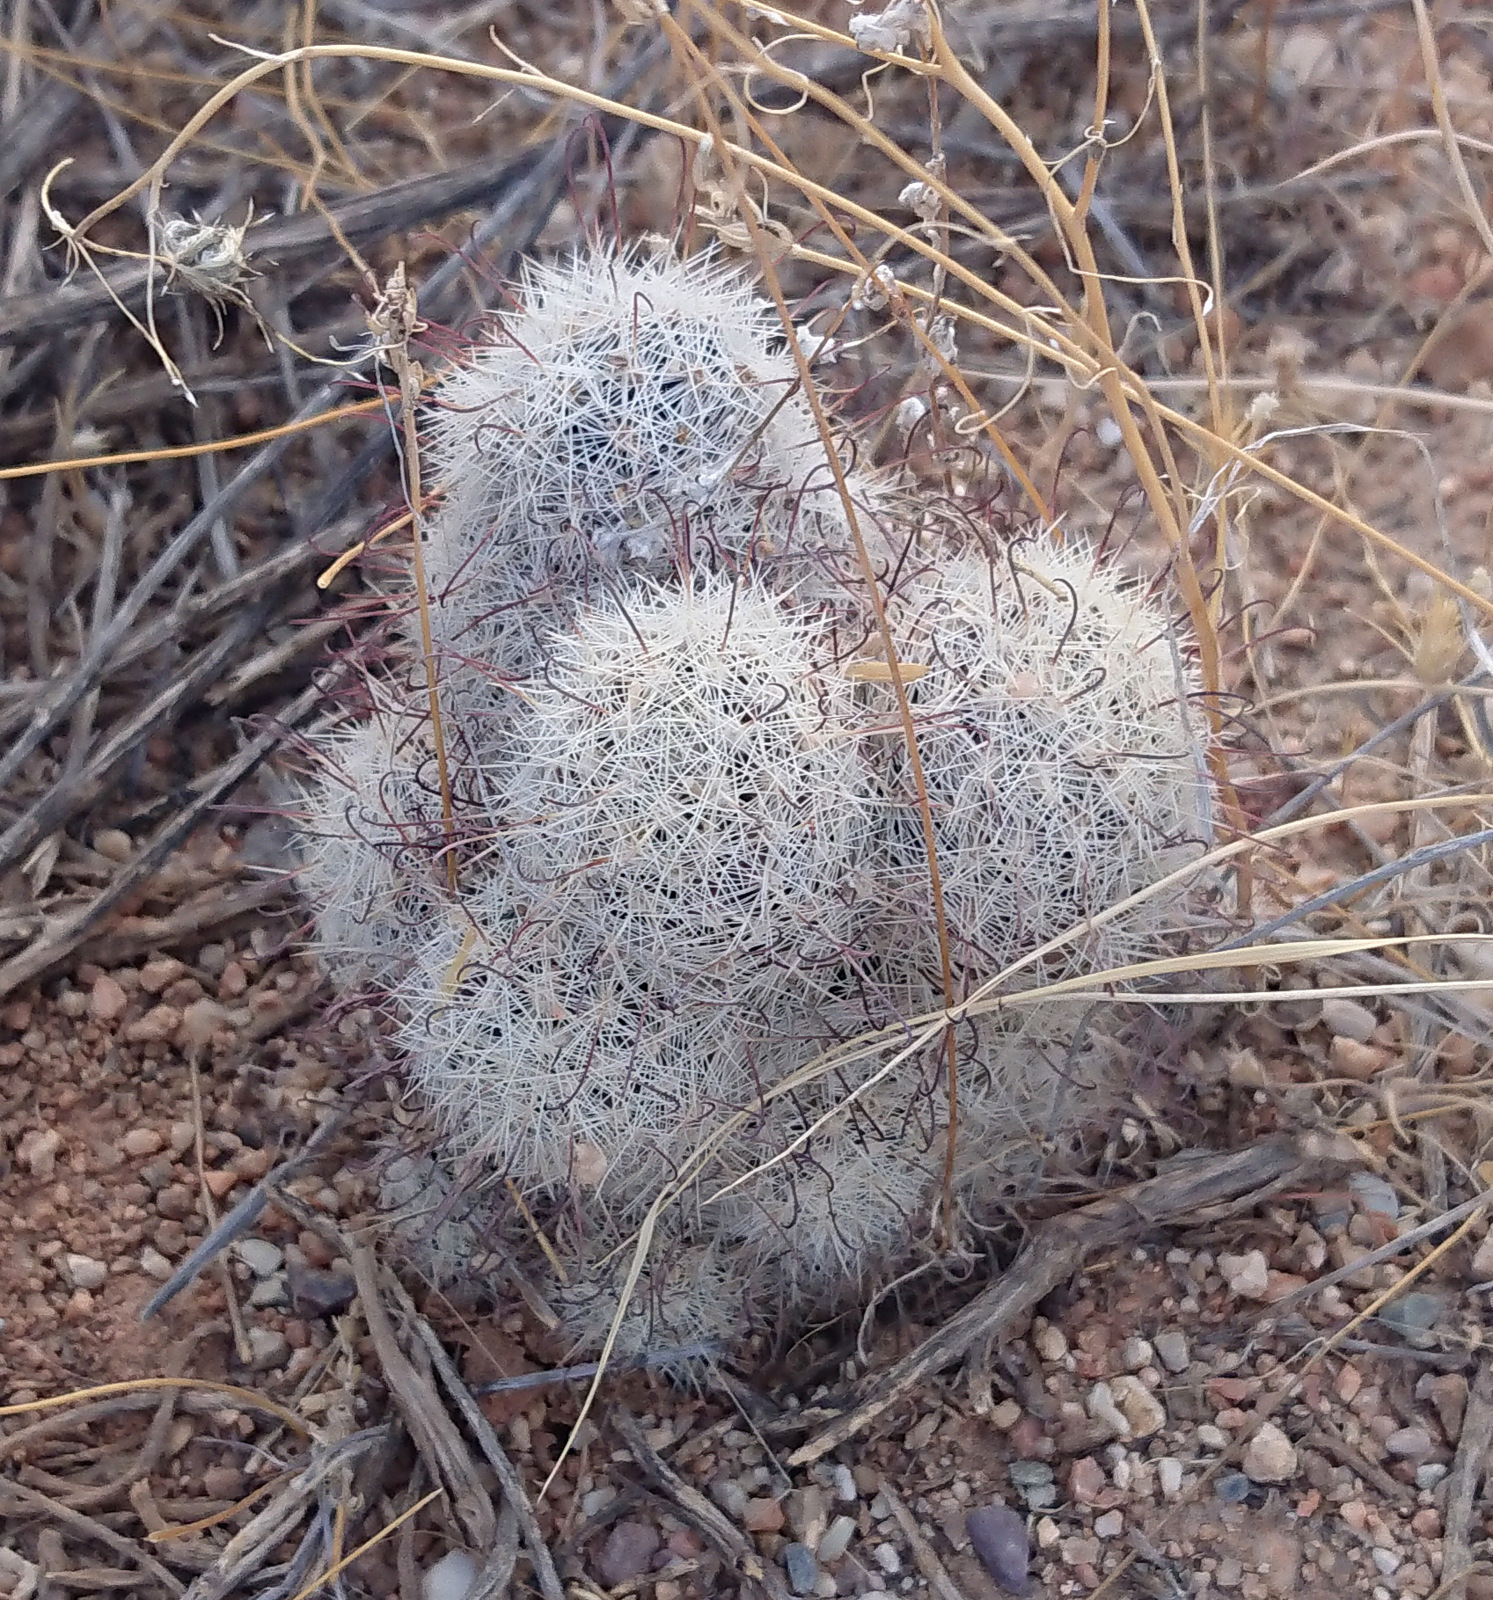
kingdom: Plantae
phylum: Tracheophyta
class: Magnoliopsida
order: Caryophyllales
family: Cactaceae
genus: Cochemiea
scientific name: Cochemiea grahamii
